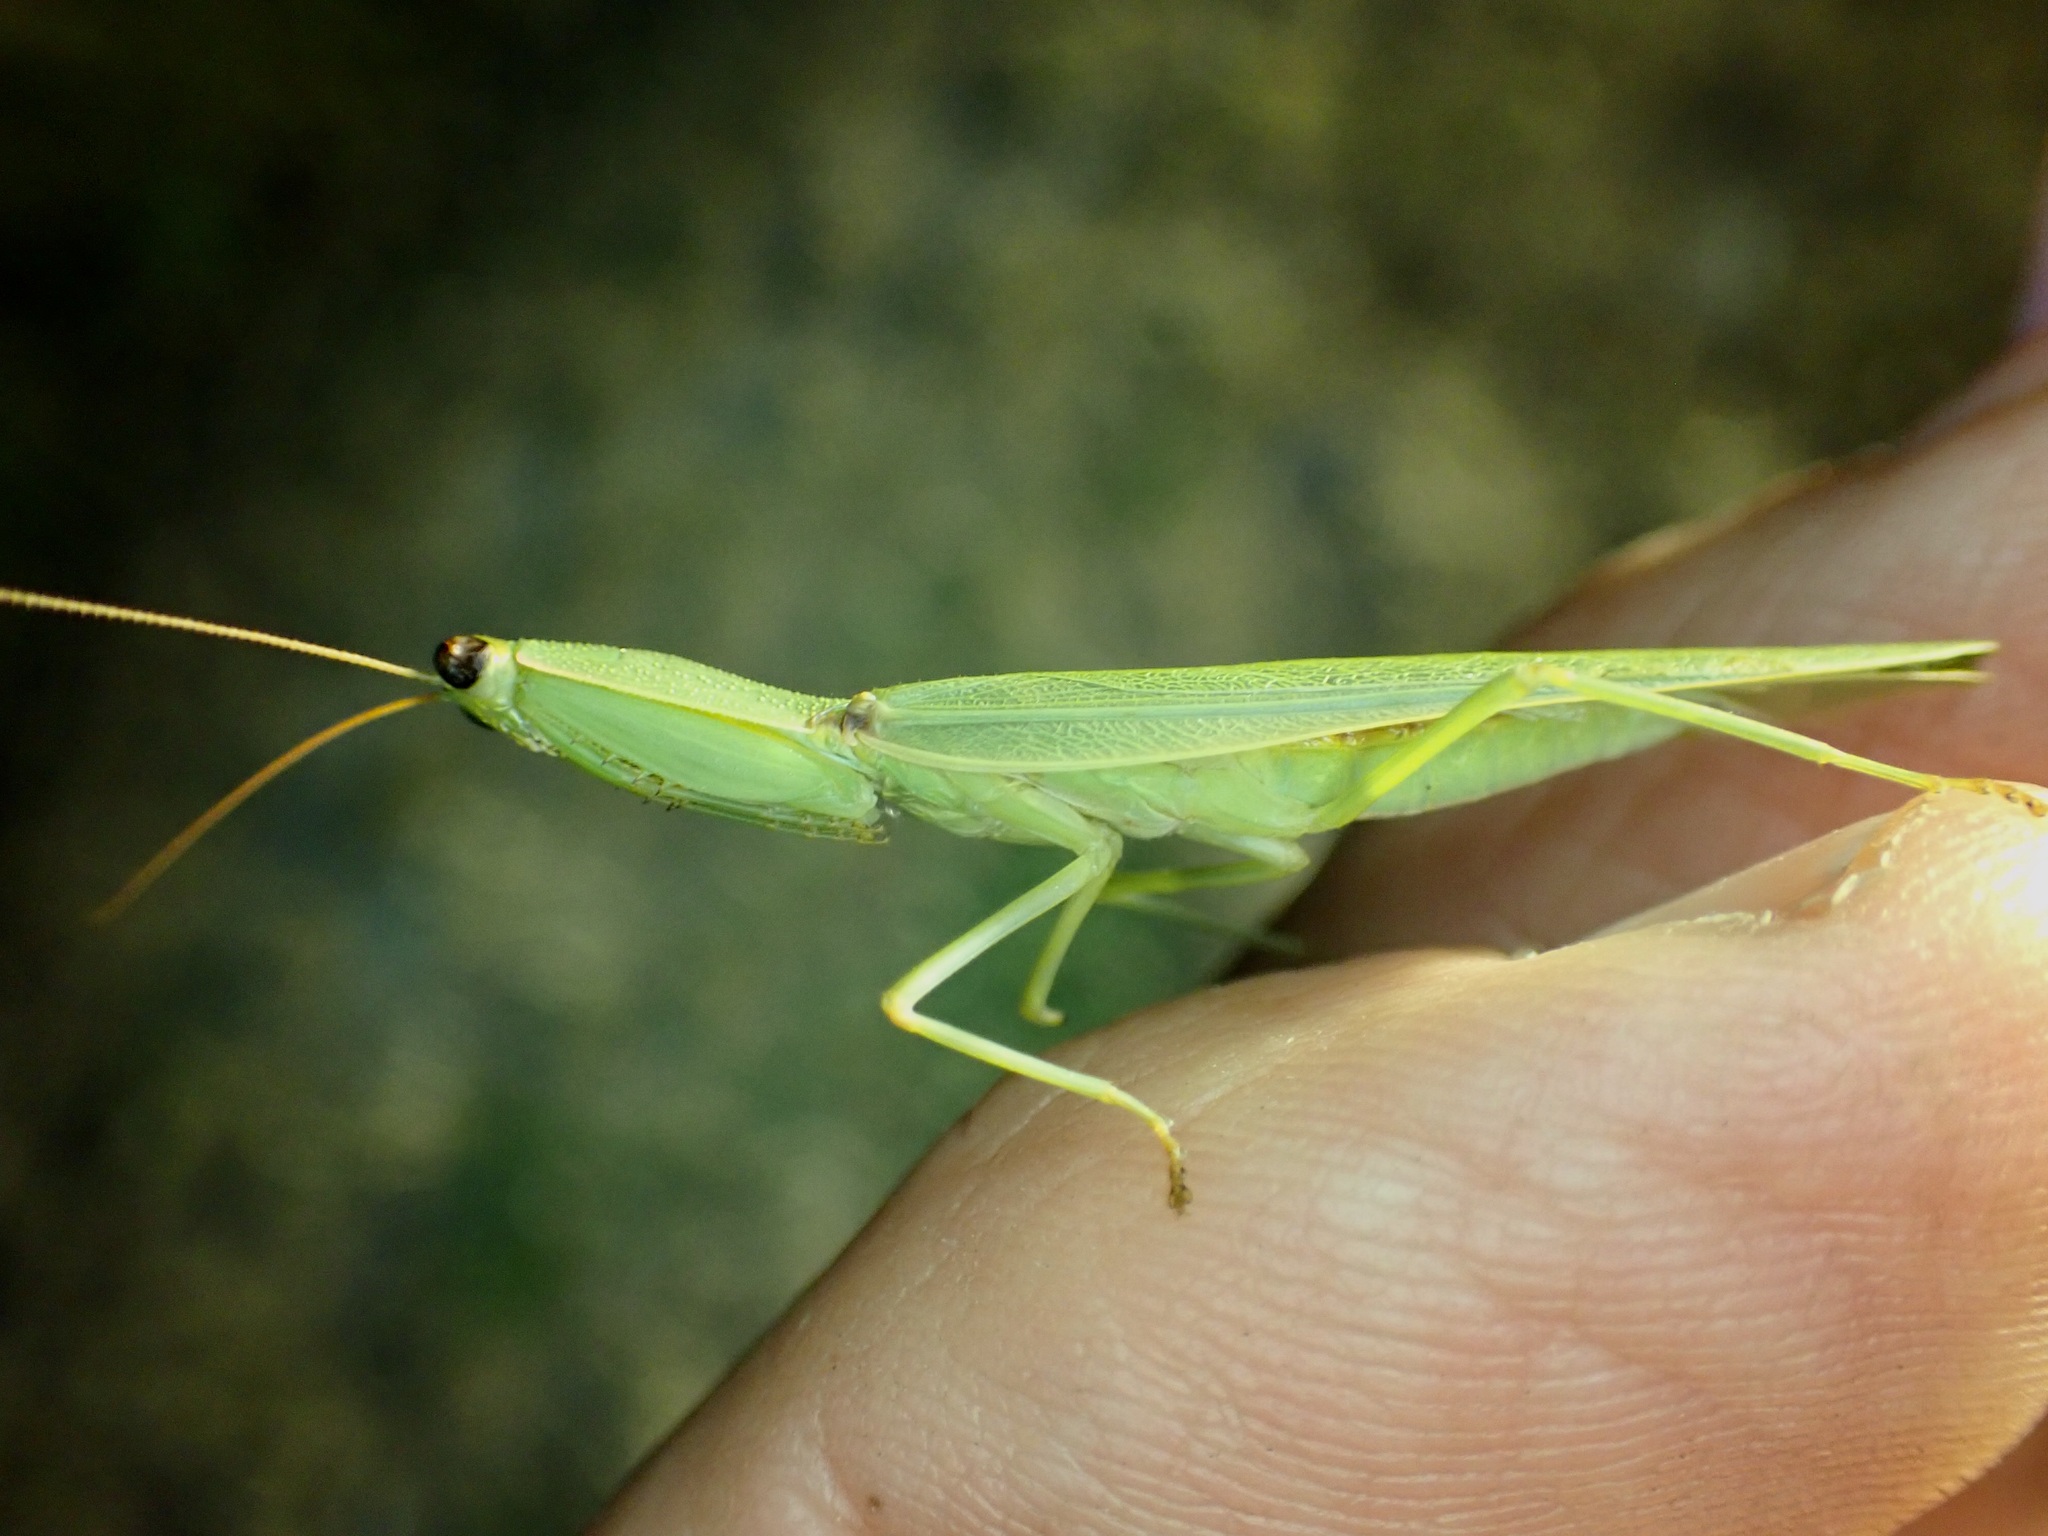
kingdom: Animalia
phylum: Arthropoda
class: Insecta
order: Mantodea
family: Mantidae
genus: Orthodera
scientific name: Orthodera novaezealandiae
